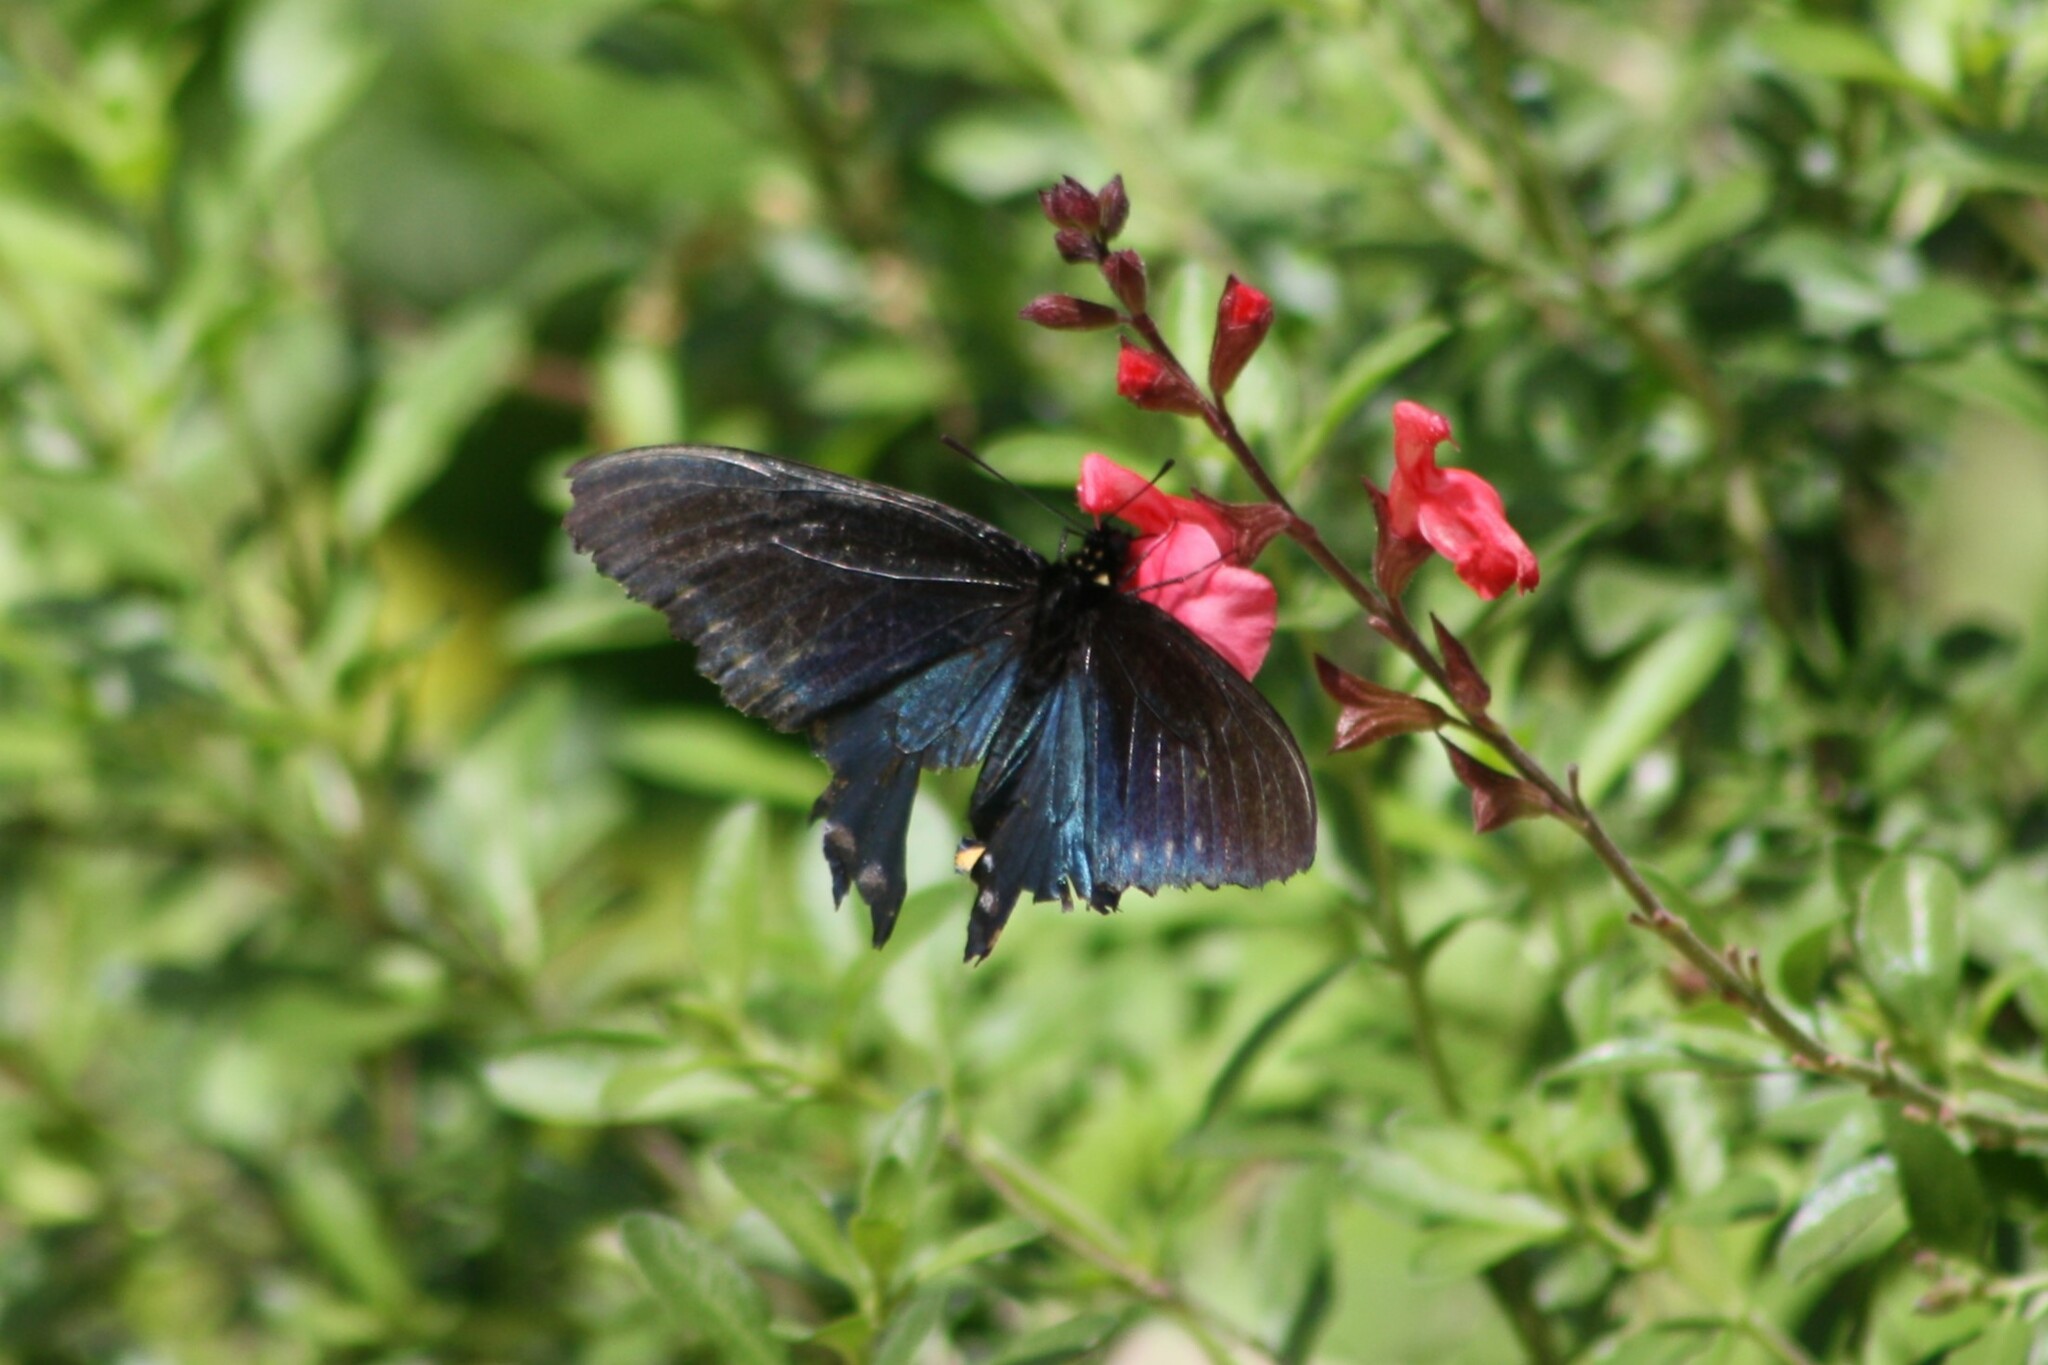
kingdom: Animalia
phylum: Arthropoda
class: Insecta
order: Lepidoptera
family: Papilionidae
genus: Battus
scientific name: Battus philenor
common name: Pipevine swallowtail
